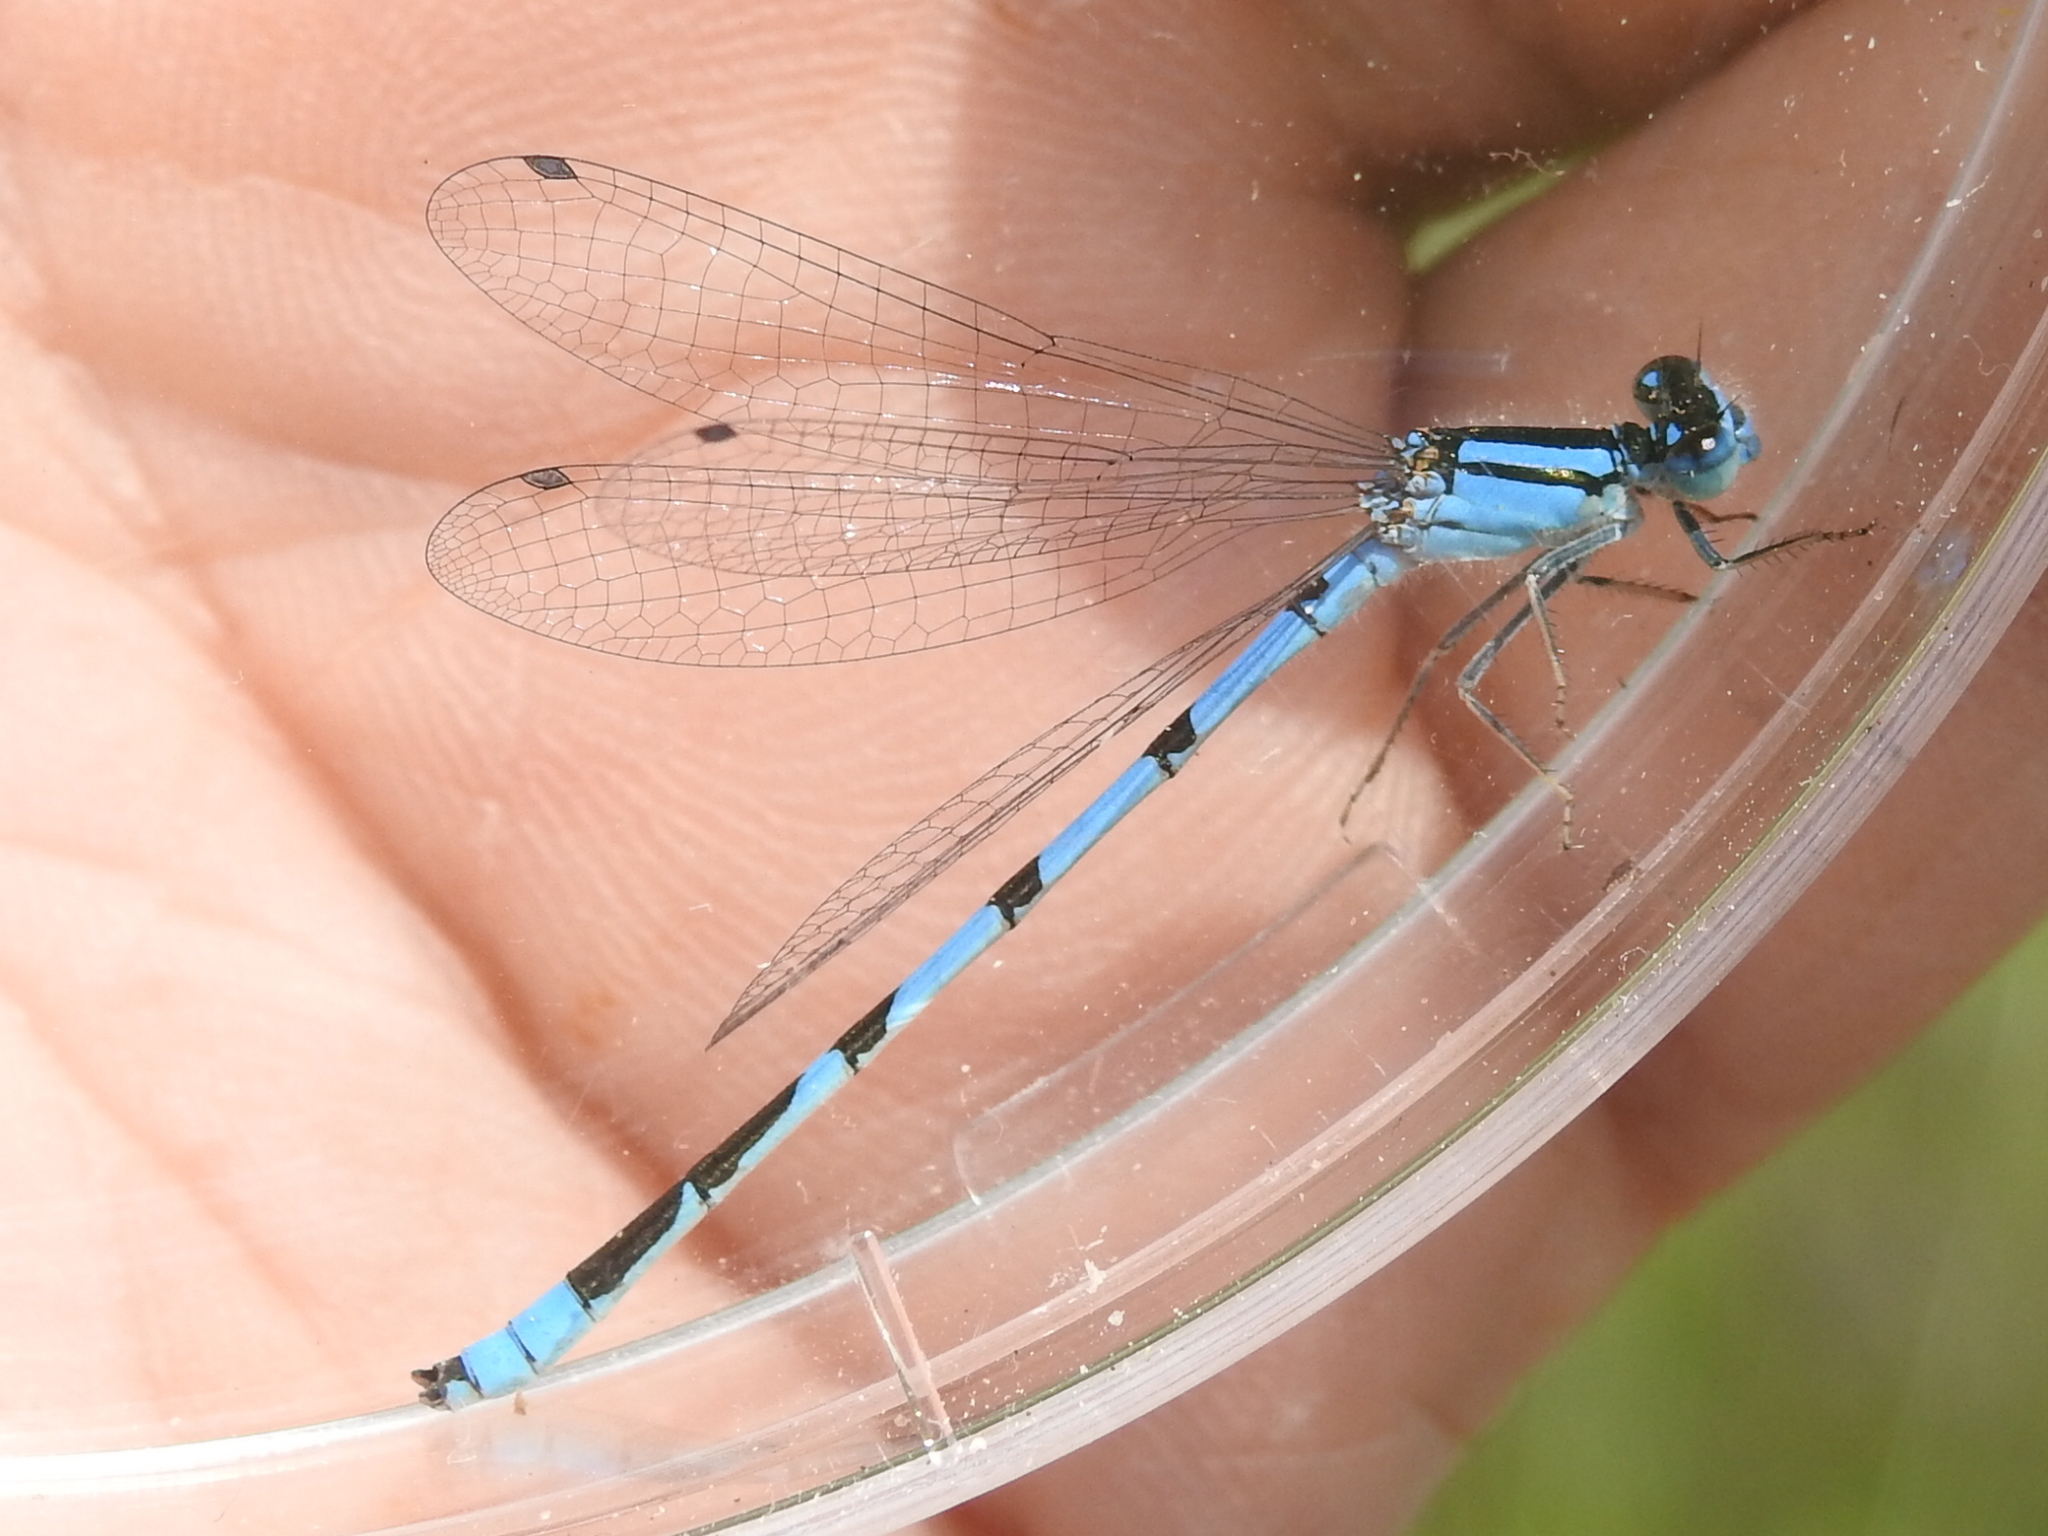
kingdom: Animalia
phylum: Arthropoda
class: Insecta
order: Odonata
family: Coenagrionidae
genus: Enallagma
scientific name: Enallagma civile
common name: Damselfly
